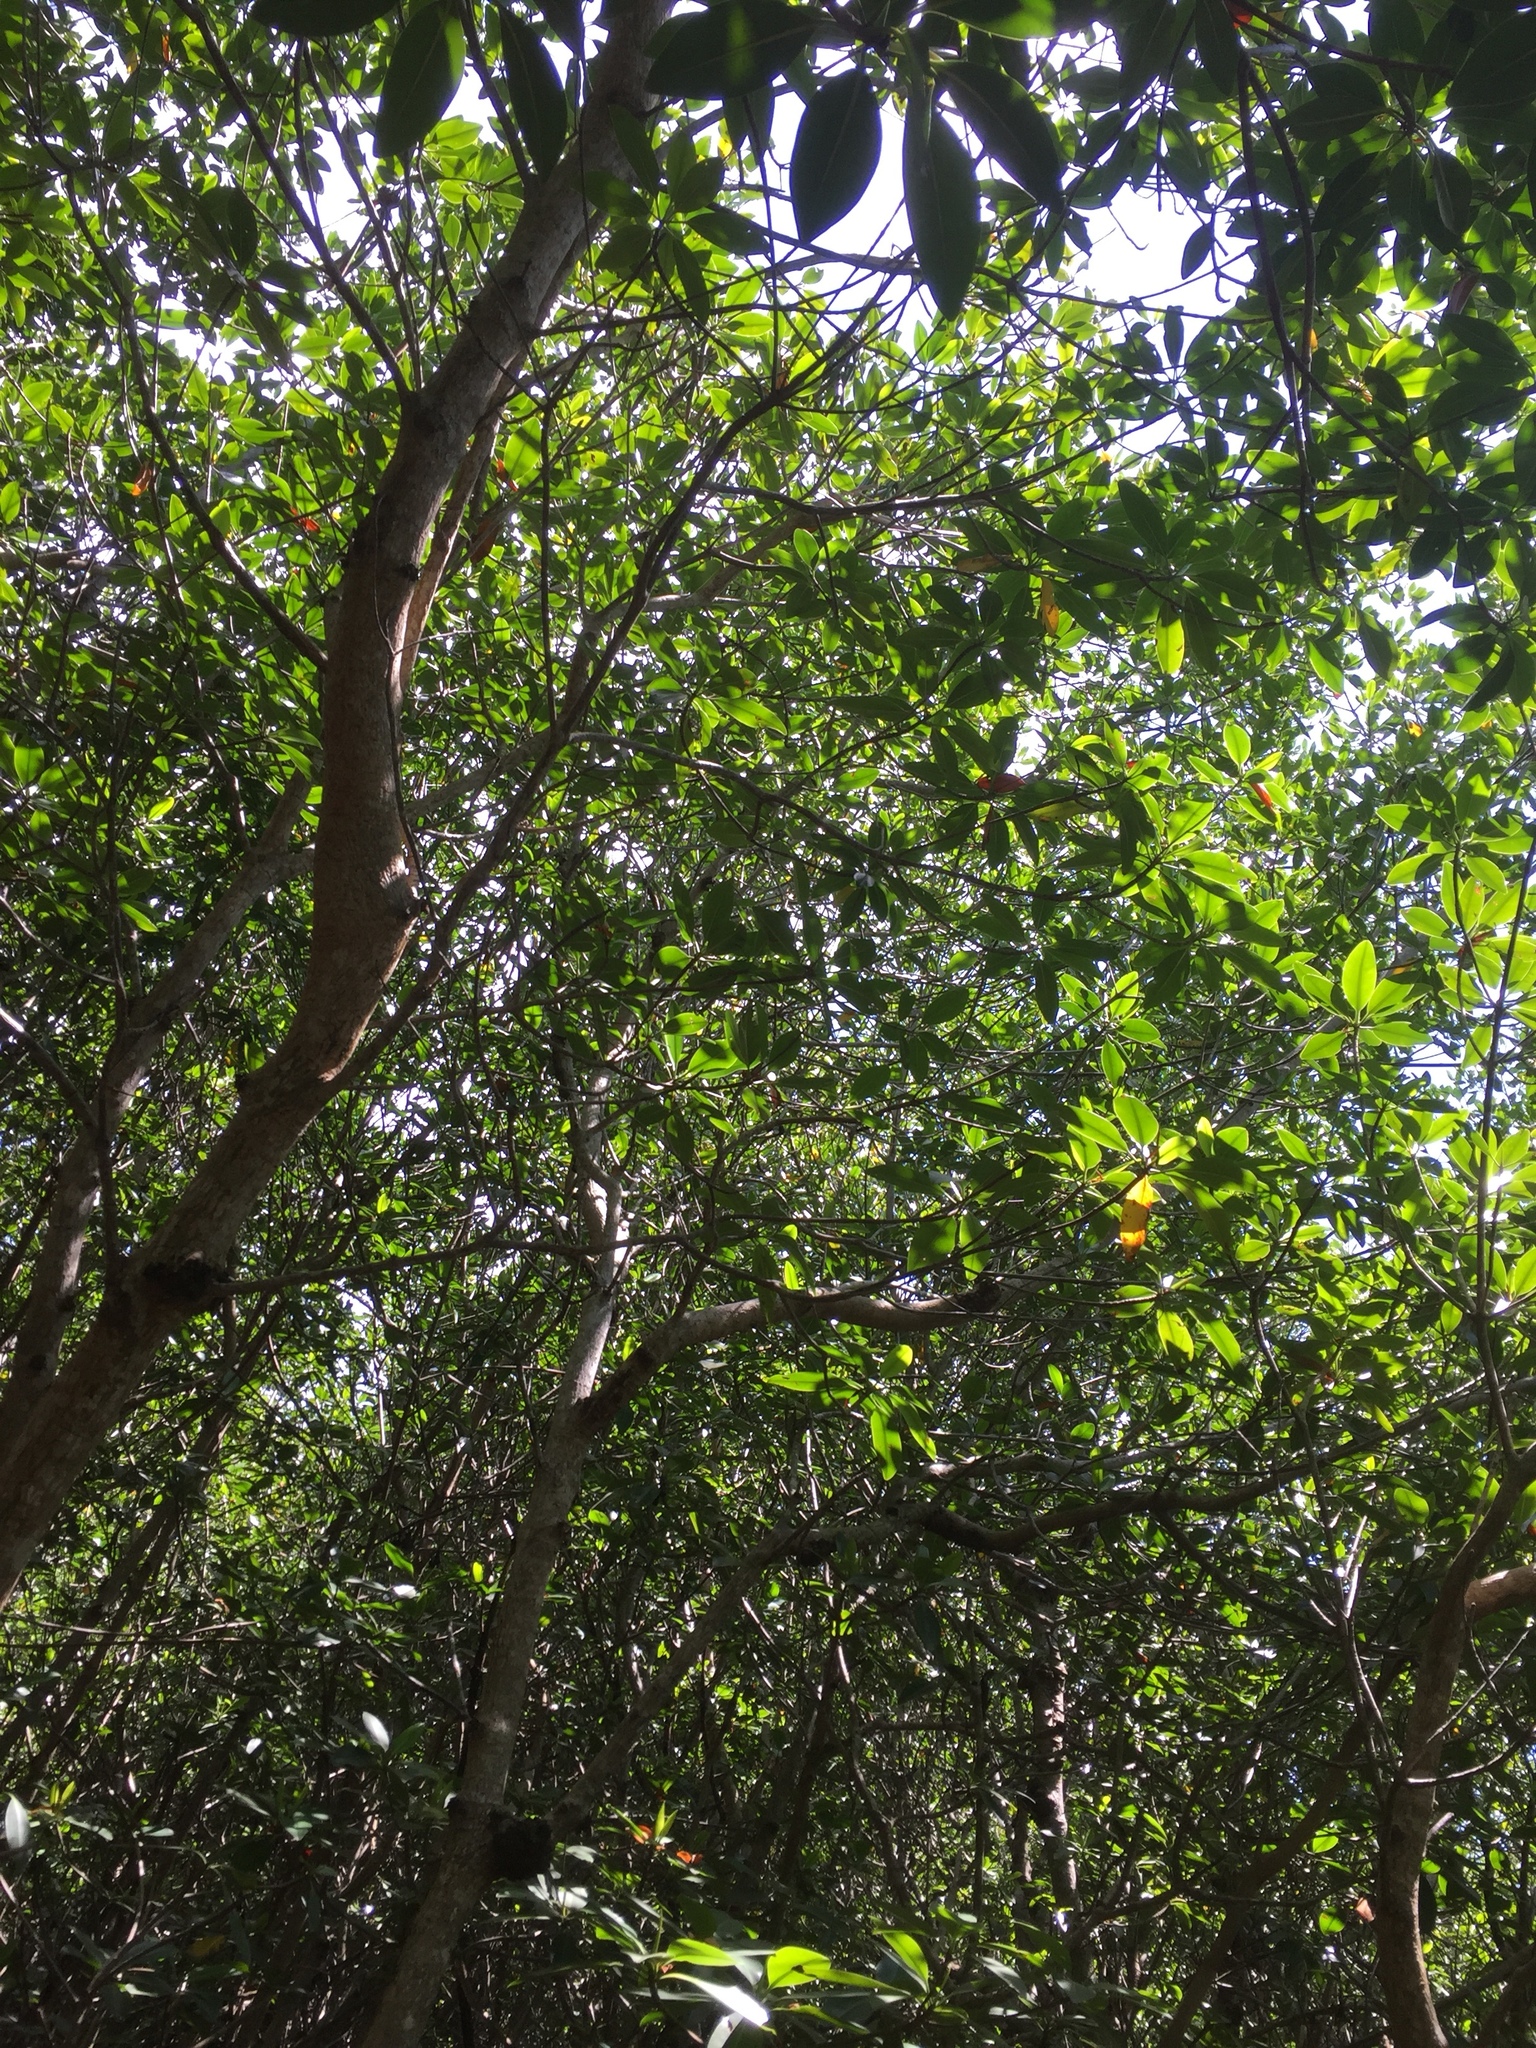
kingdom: Plantae
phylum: Tracheophyta
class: Magnoliopsida
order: Malpighiales
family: Rhizophoraceae
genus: Rhizophora
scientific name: Rhizophora mangle
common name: Red mangrove
